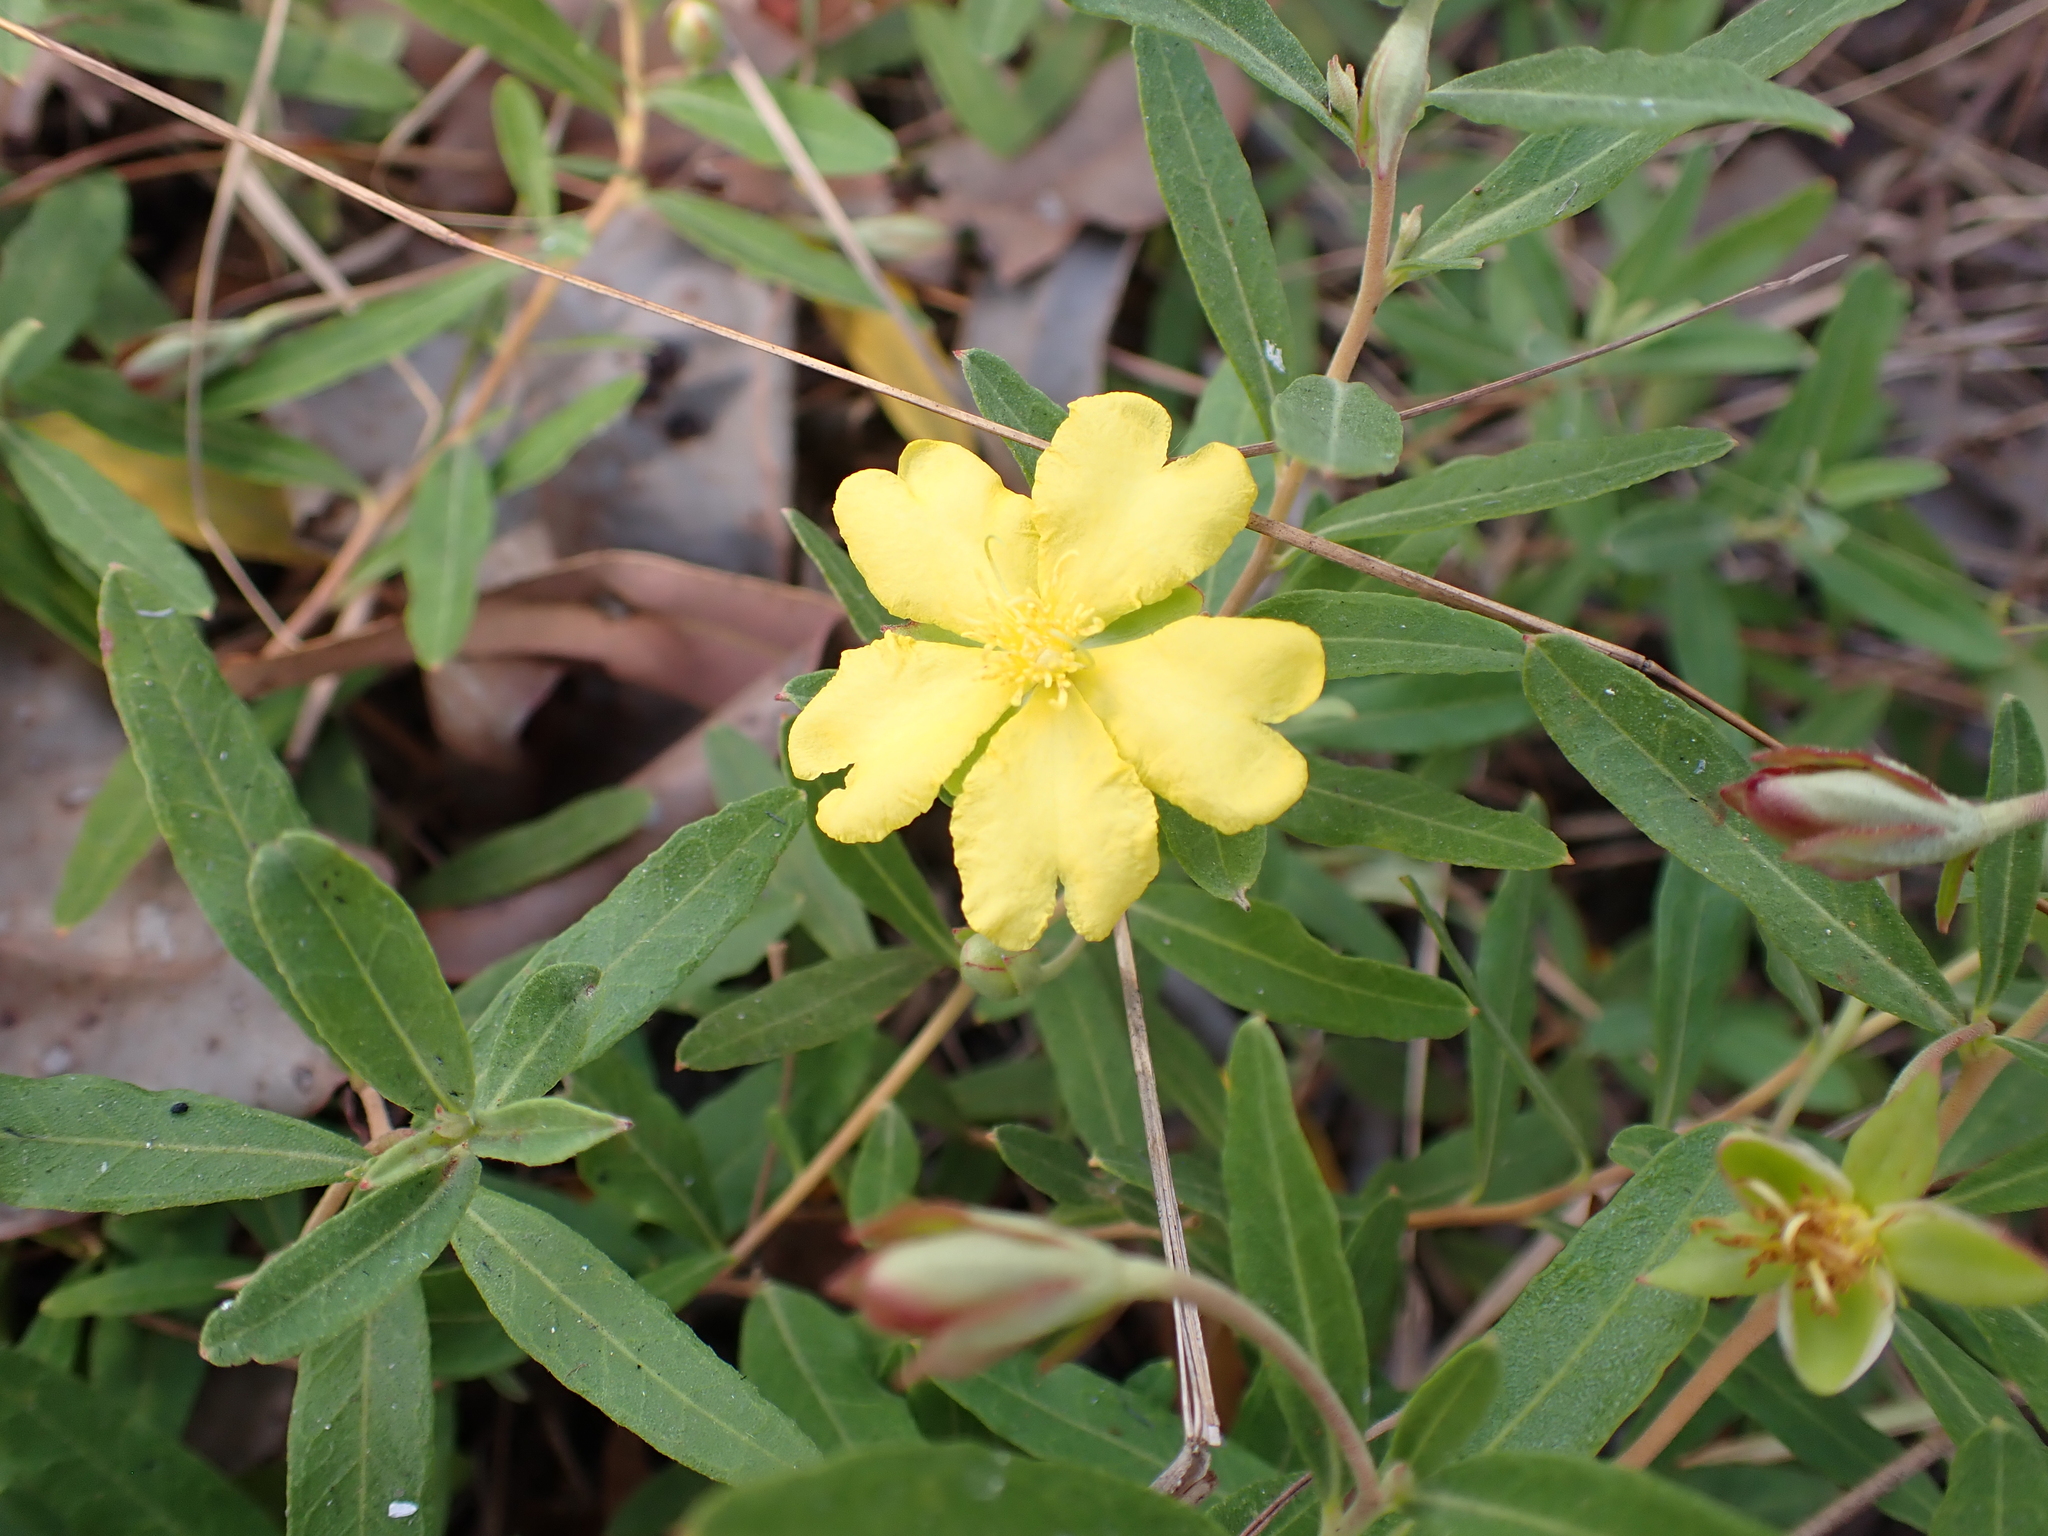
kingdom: Plantae
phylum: Tracheophyta
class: Magnoliopsida
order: Dilleniales
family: Dilleniaceae
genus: Hibbertia
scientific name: Hibbertia cistifolia
